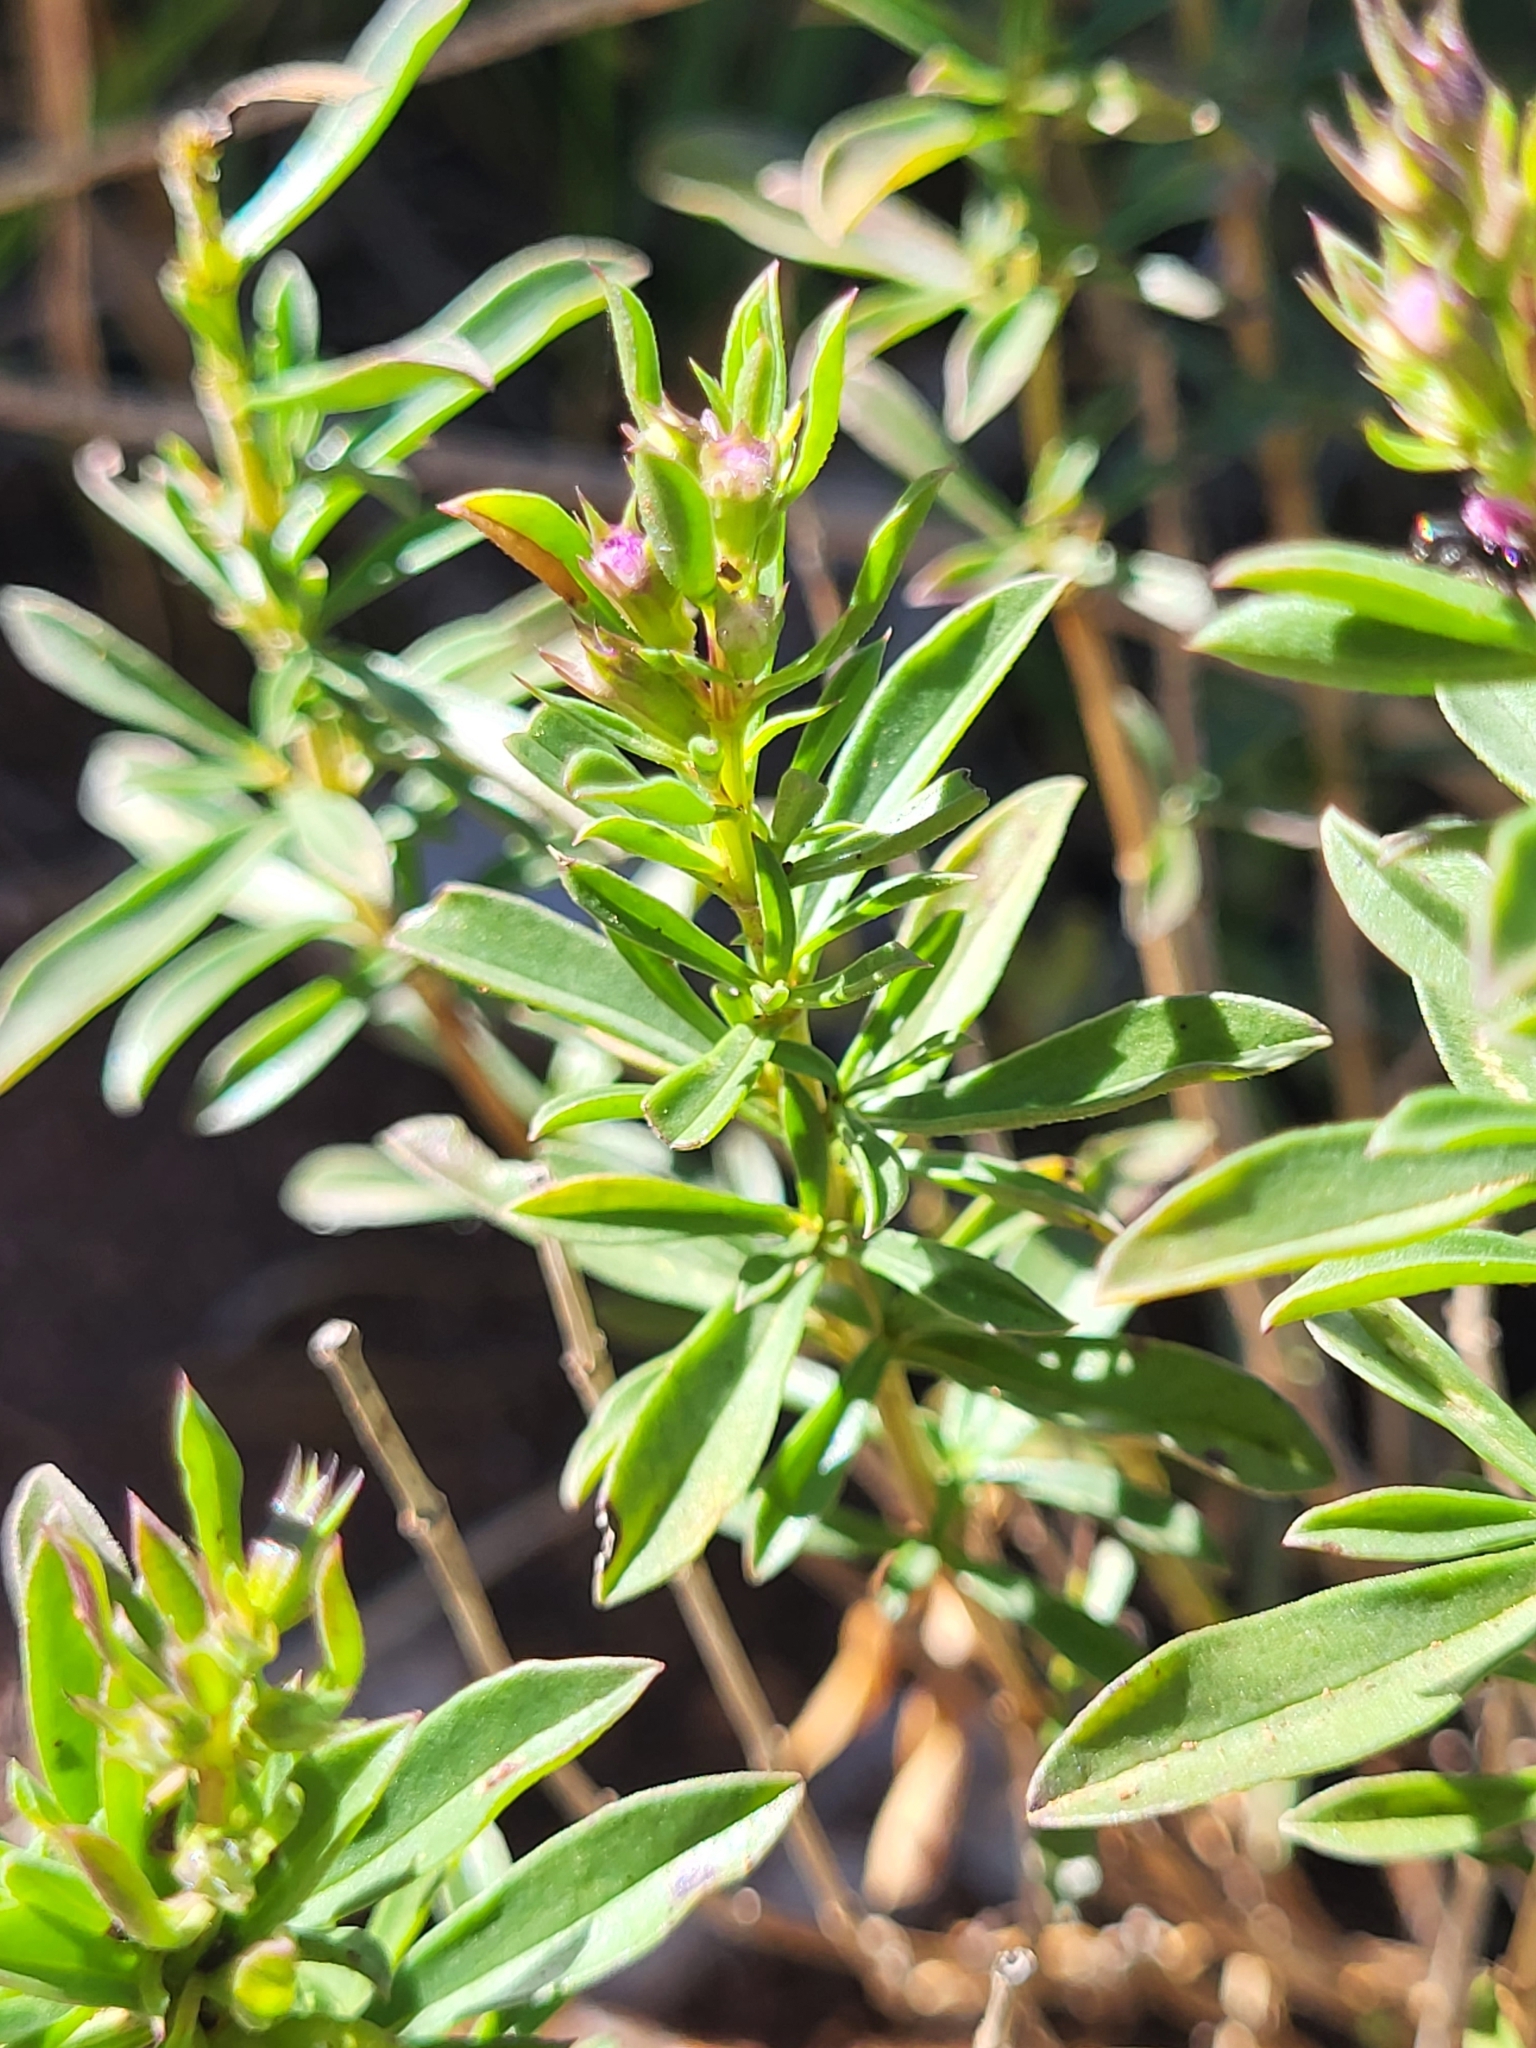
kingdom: Plantae
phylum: Tracheophyta
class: Magnoliopsida
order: Lamiales
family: Lamiaceae
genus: Satureja
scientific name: Satureja subspicata
